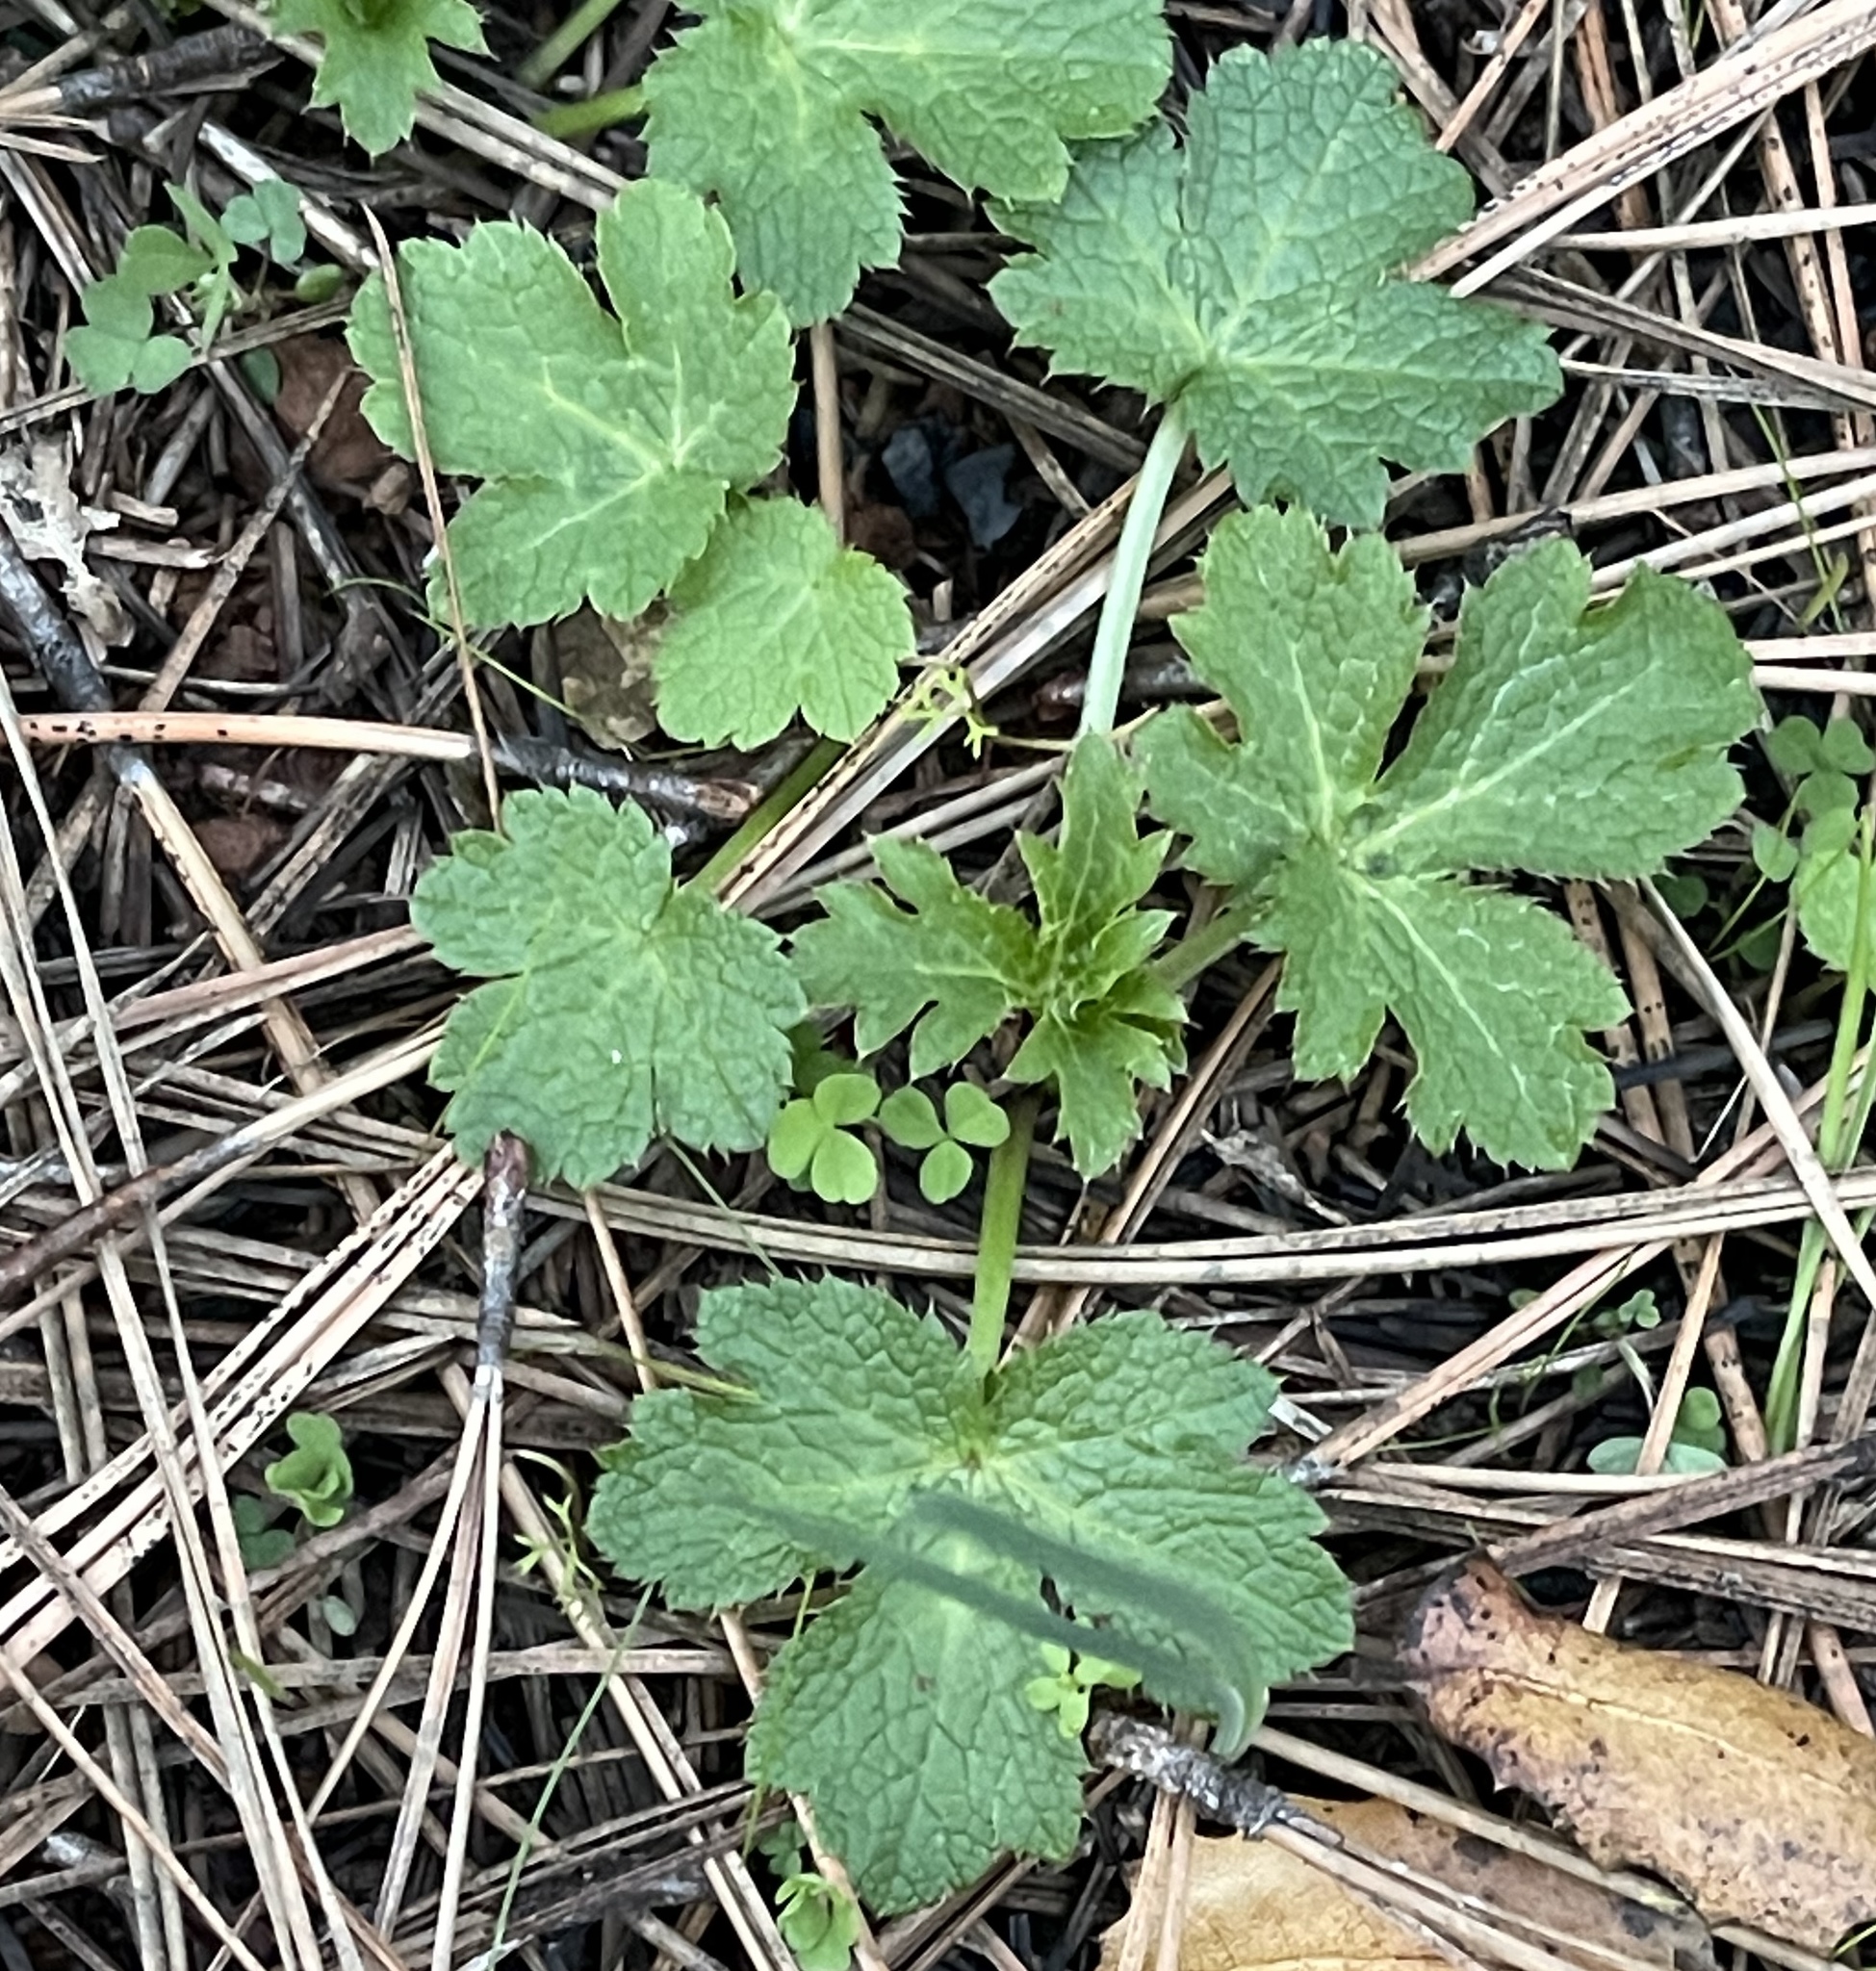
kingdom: Plantae
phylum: Tracheophyta
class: Magnoliopsida
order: Apiales
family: Apiaceae
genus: Sanicula
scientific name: Sanicula crassicaulis
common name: Western snakeroot
